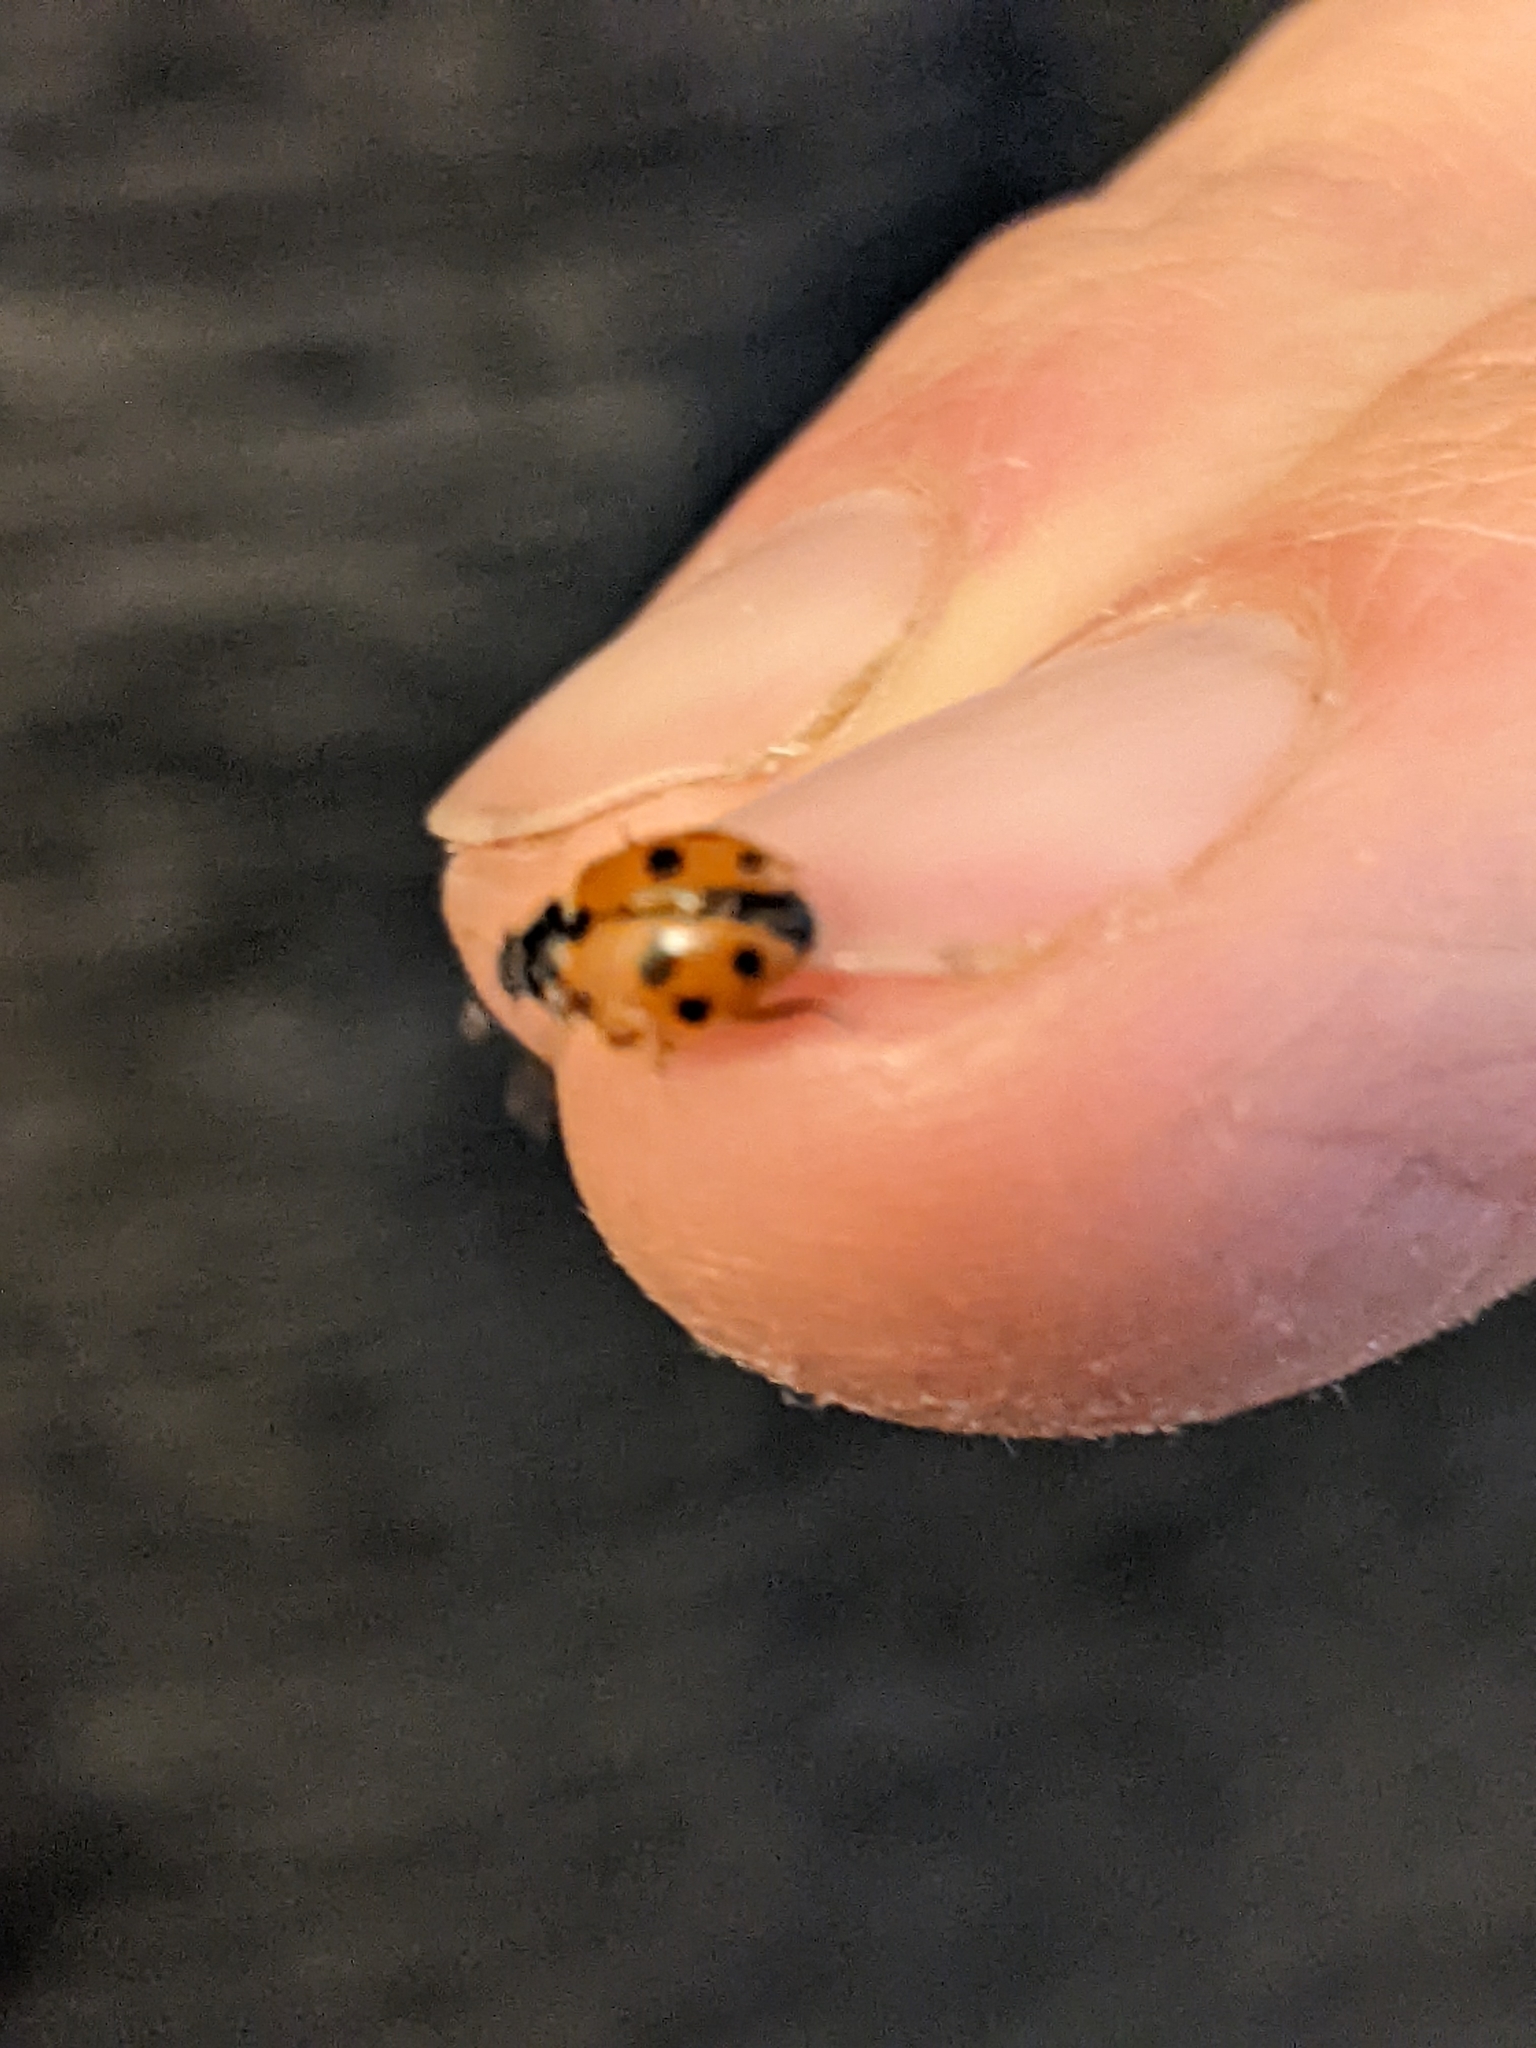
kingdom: Animalia
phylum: Arthropoda
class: Insecta
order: Coleoptera
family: Coccinellidae
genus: Hippodamia
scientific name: Hippodamia variegata
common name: Ladybird beetle
